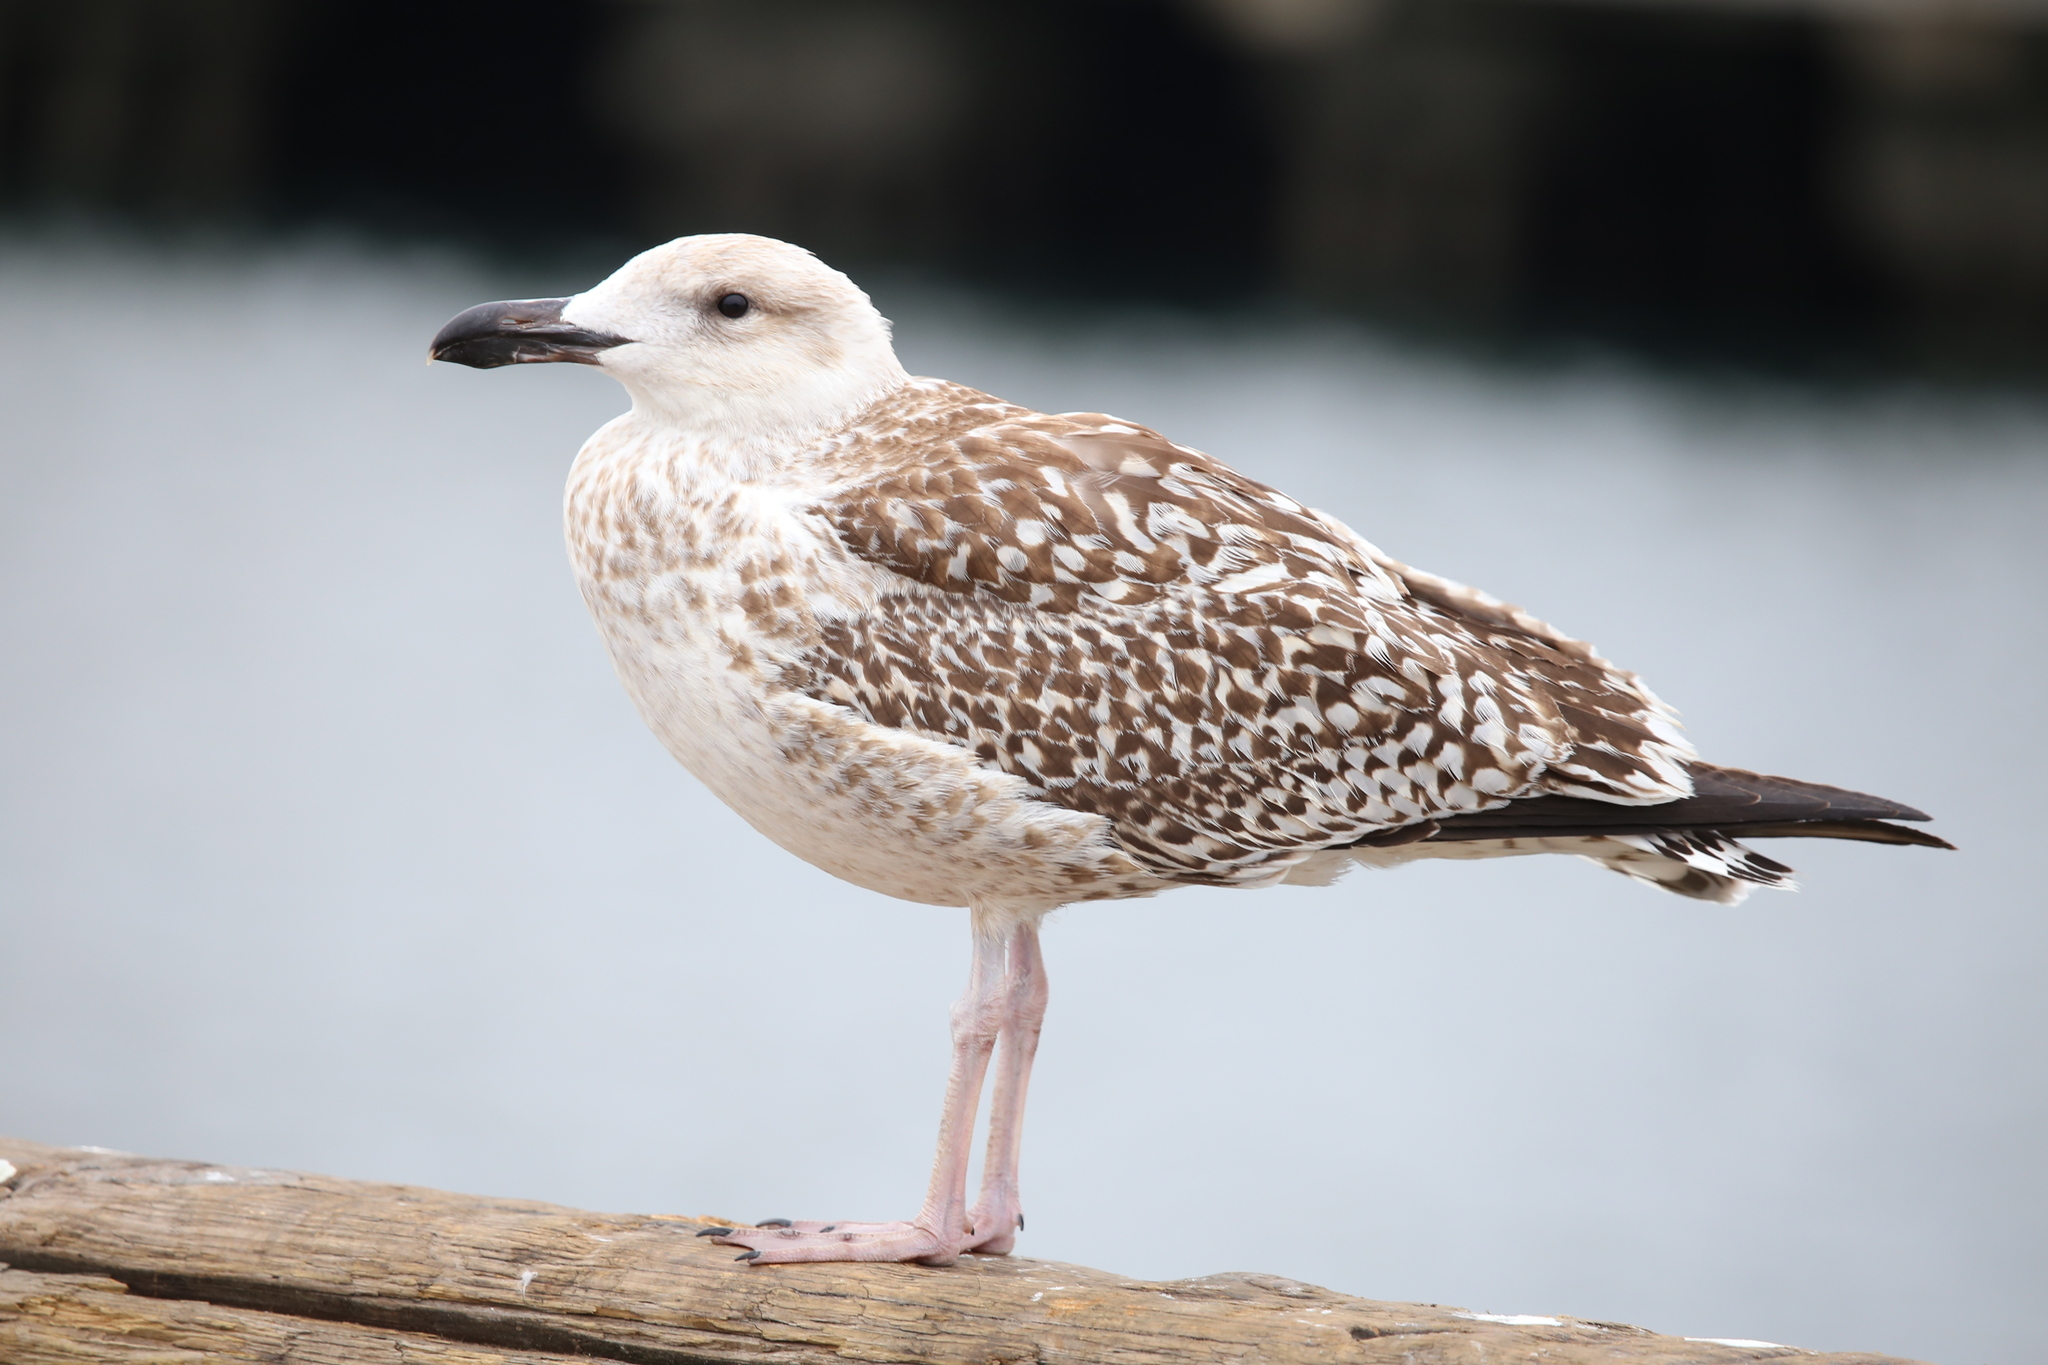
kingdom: Animalia
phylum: Chordata
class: Aves
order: Charadriiformes
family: Laridae
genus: Larus
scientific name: Larus marinus
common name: Great black-backed gull
